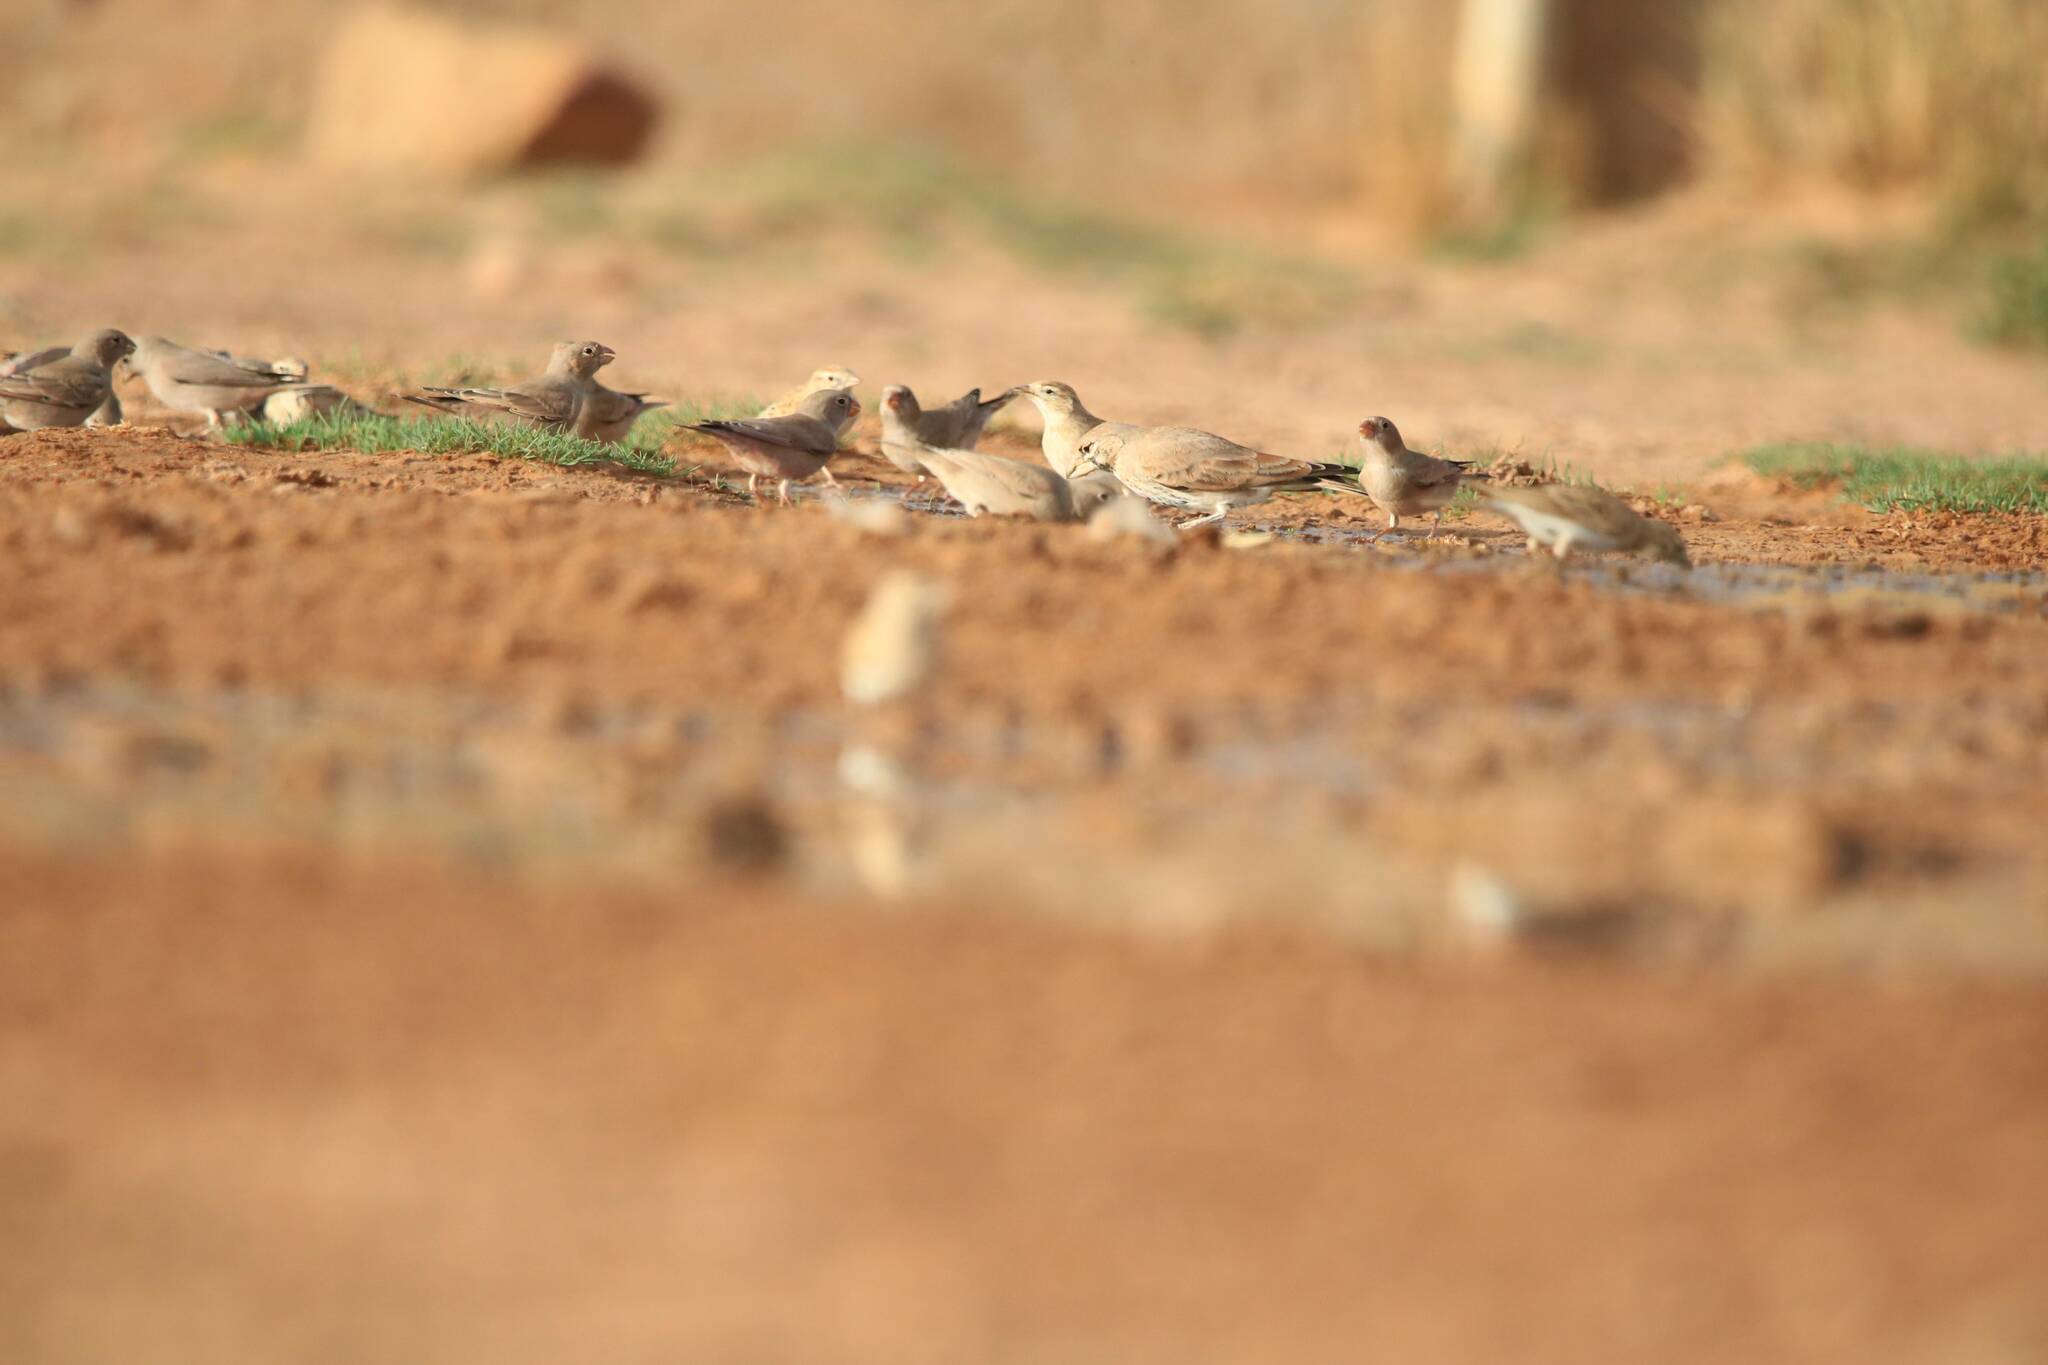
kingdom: Animalia
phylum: Chordata
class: Aves
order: Passeriformes
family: Fringillidae
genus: Bucanetes
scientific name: Bucanetes githagineus
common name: Trumpeter finch
